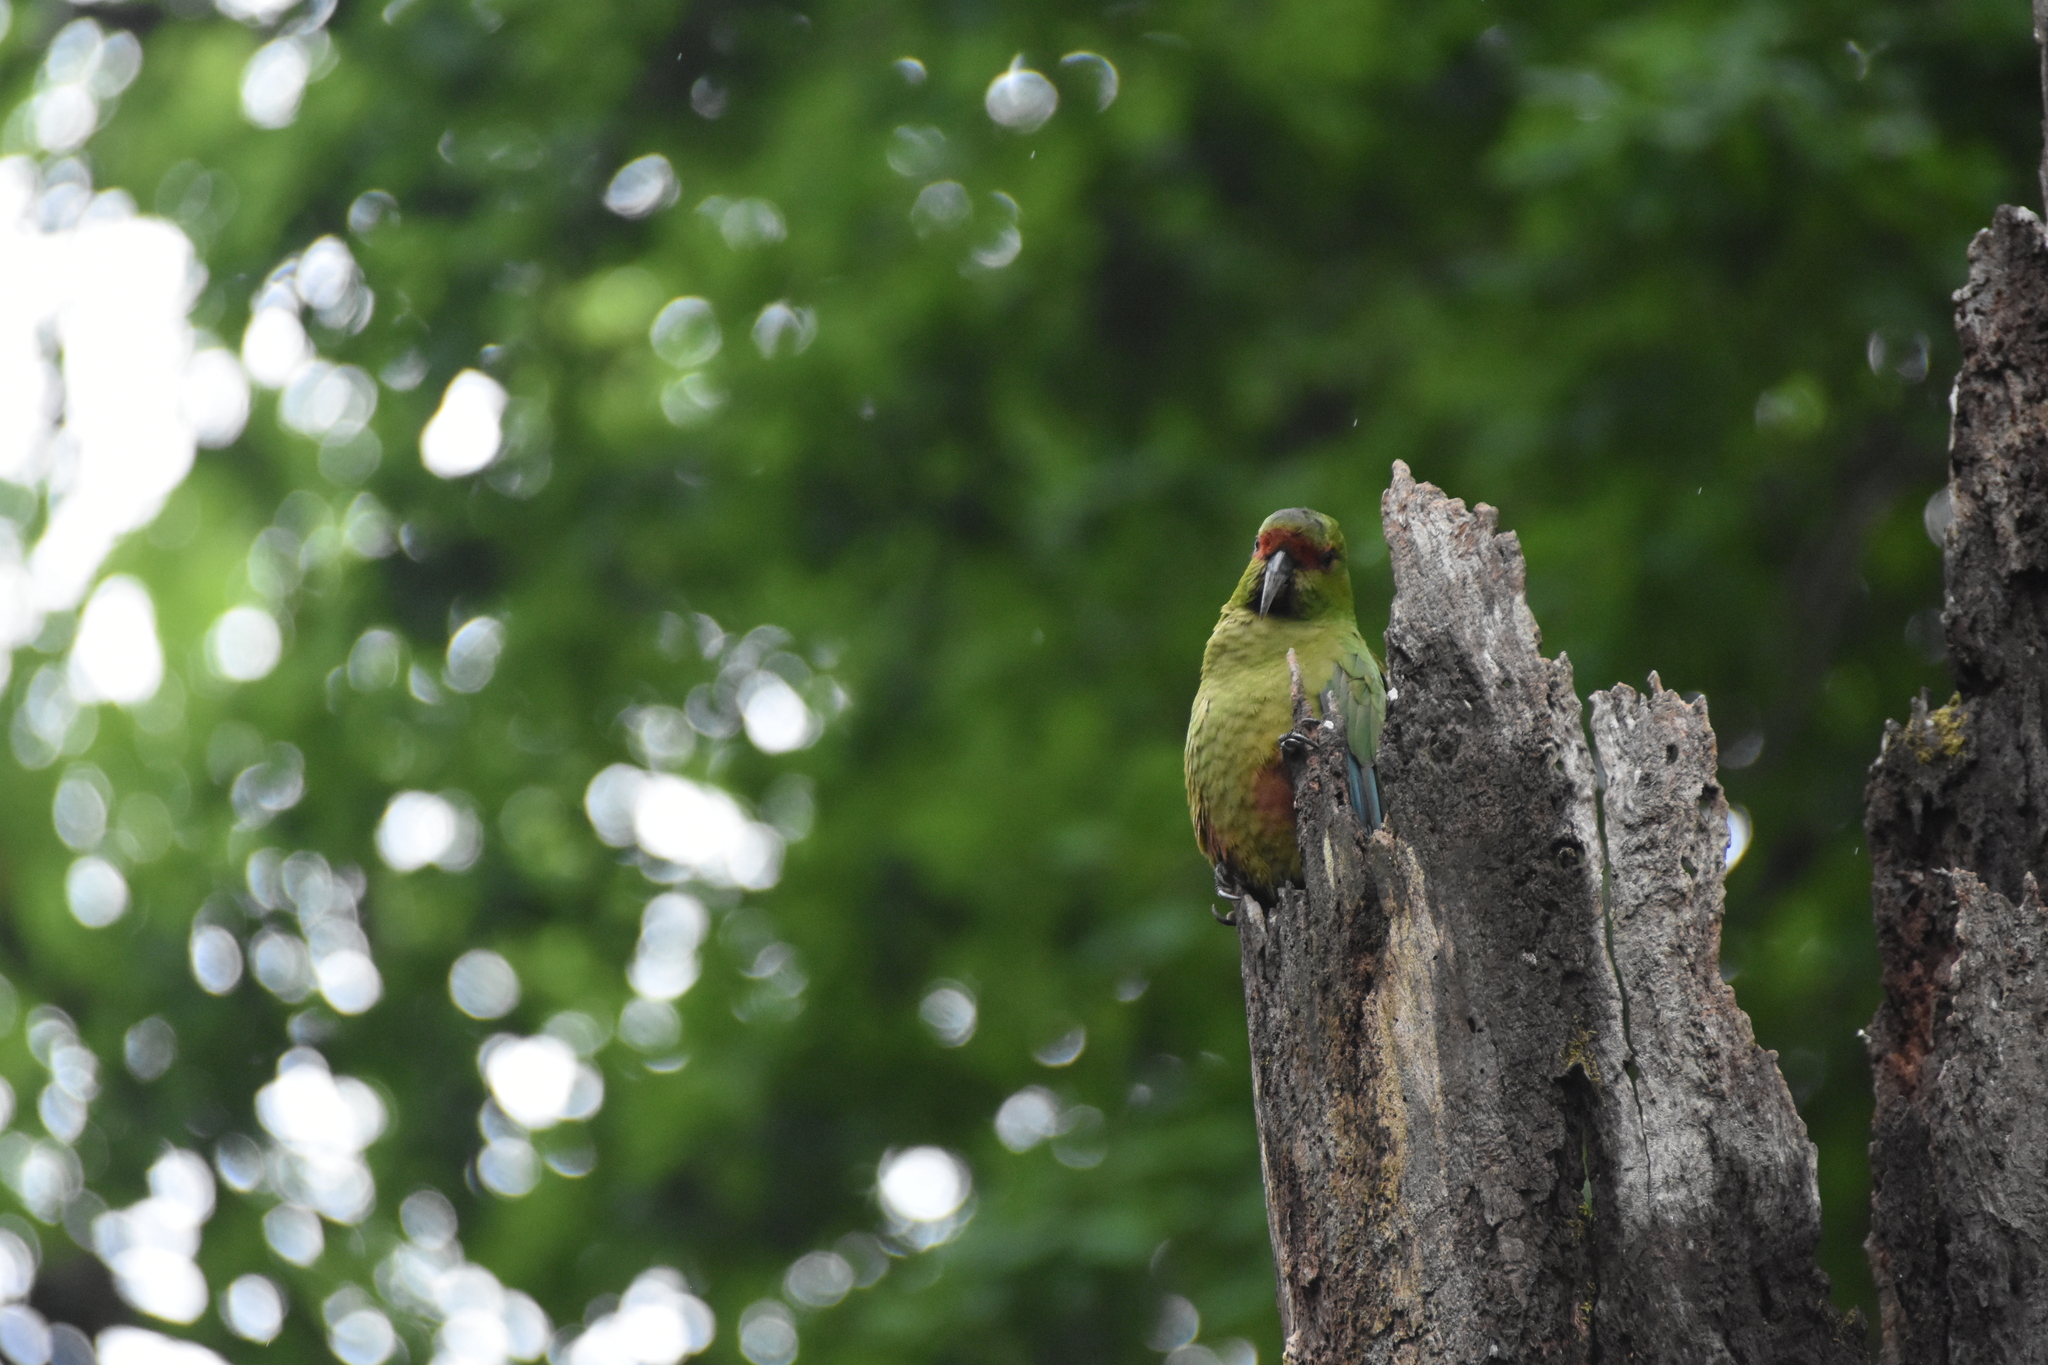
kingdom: Animalia
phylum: Chordata
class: Aves
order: Psittaciformes
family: Psittacidae
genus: Enicognathus
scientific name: Enicognathus leptorhynchus
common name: Slender-billed parakeet
